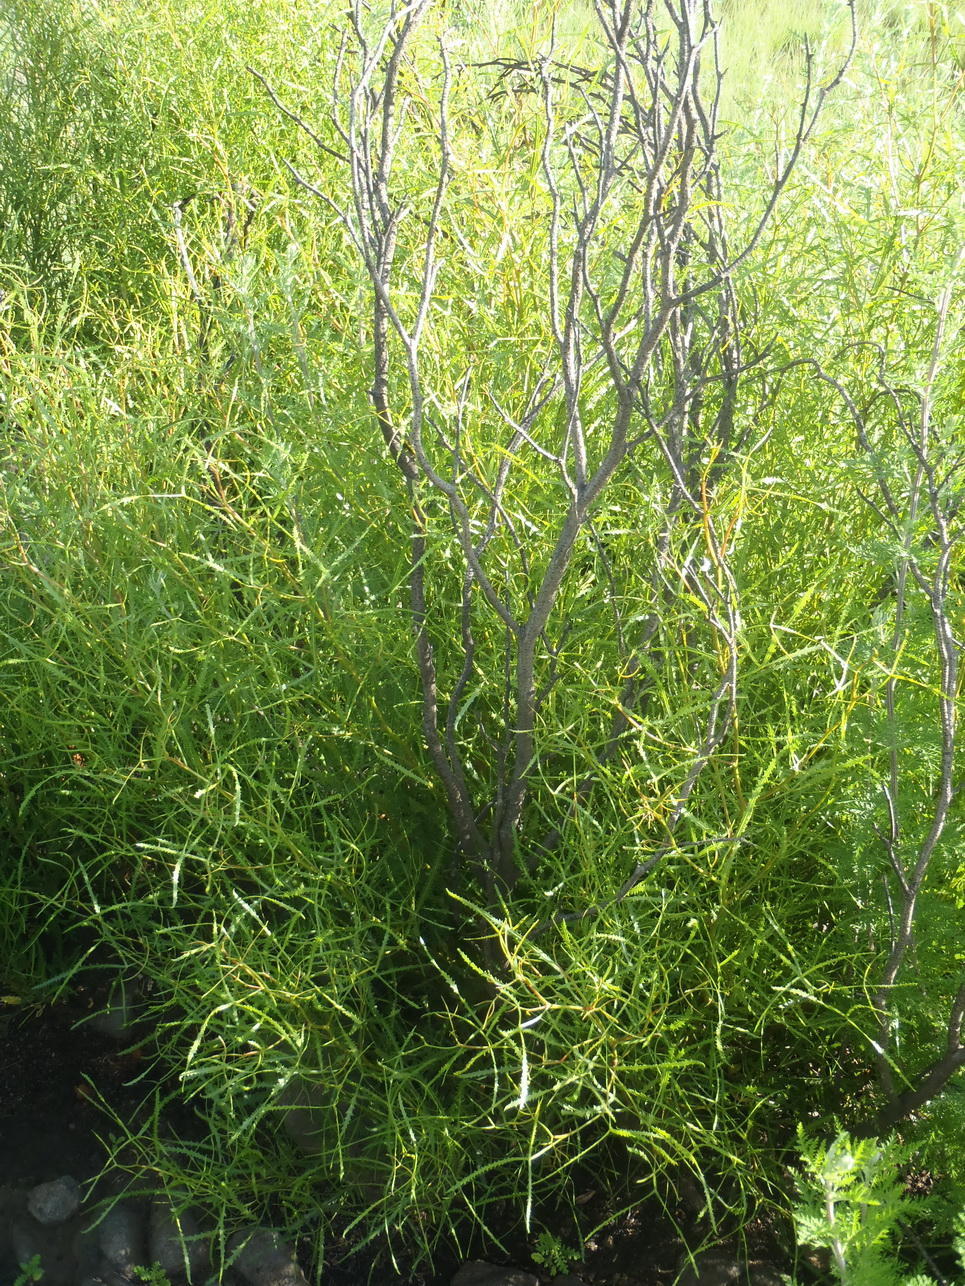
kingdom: Plantae
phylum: Tracheophyta
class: Magnoliopsida
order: Sapindales
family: Anacardiaceae
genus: Searsia
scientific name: Searsia erosa
